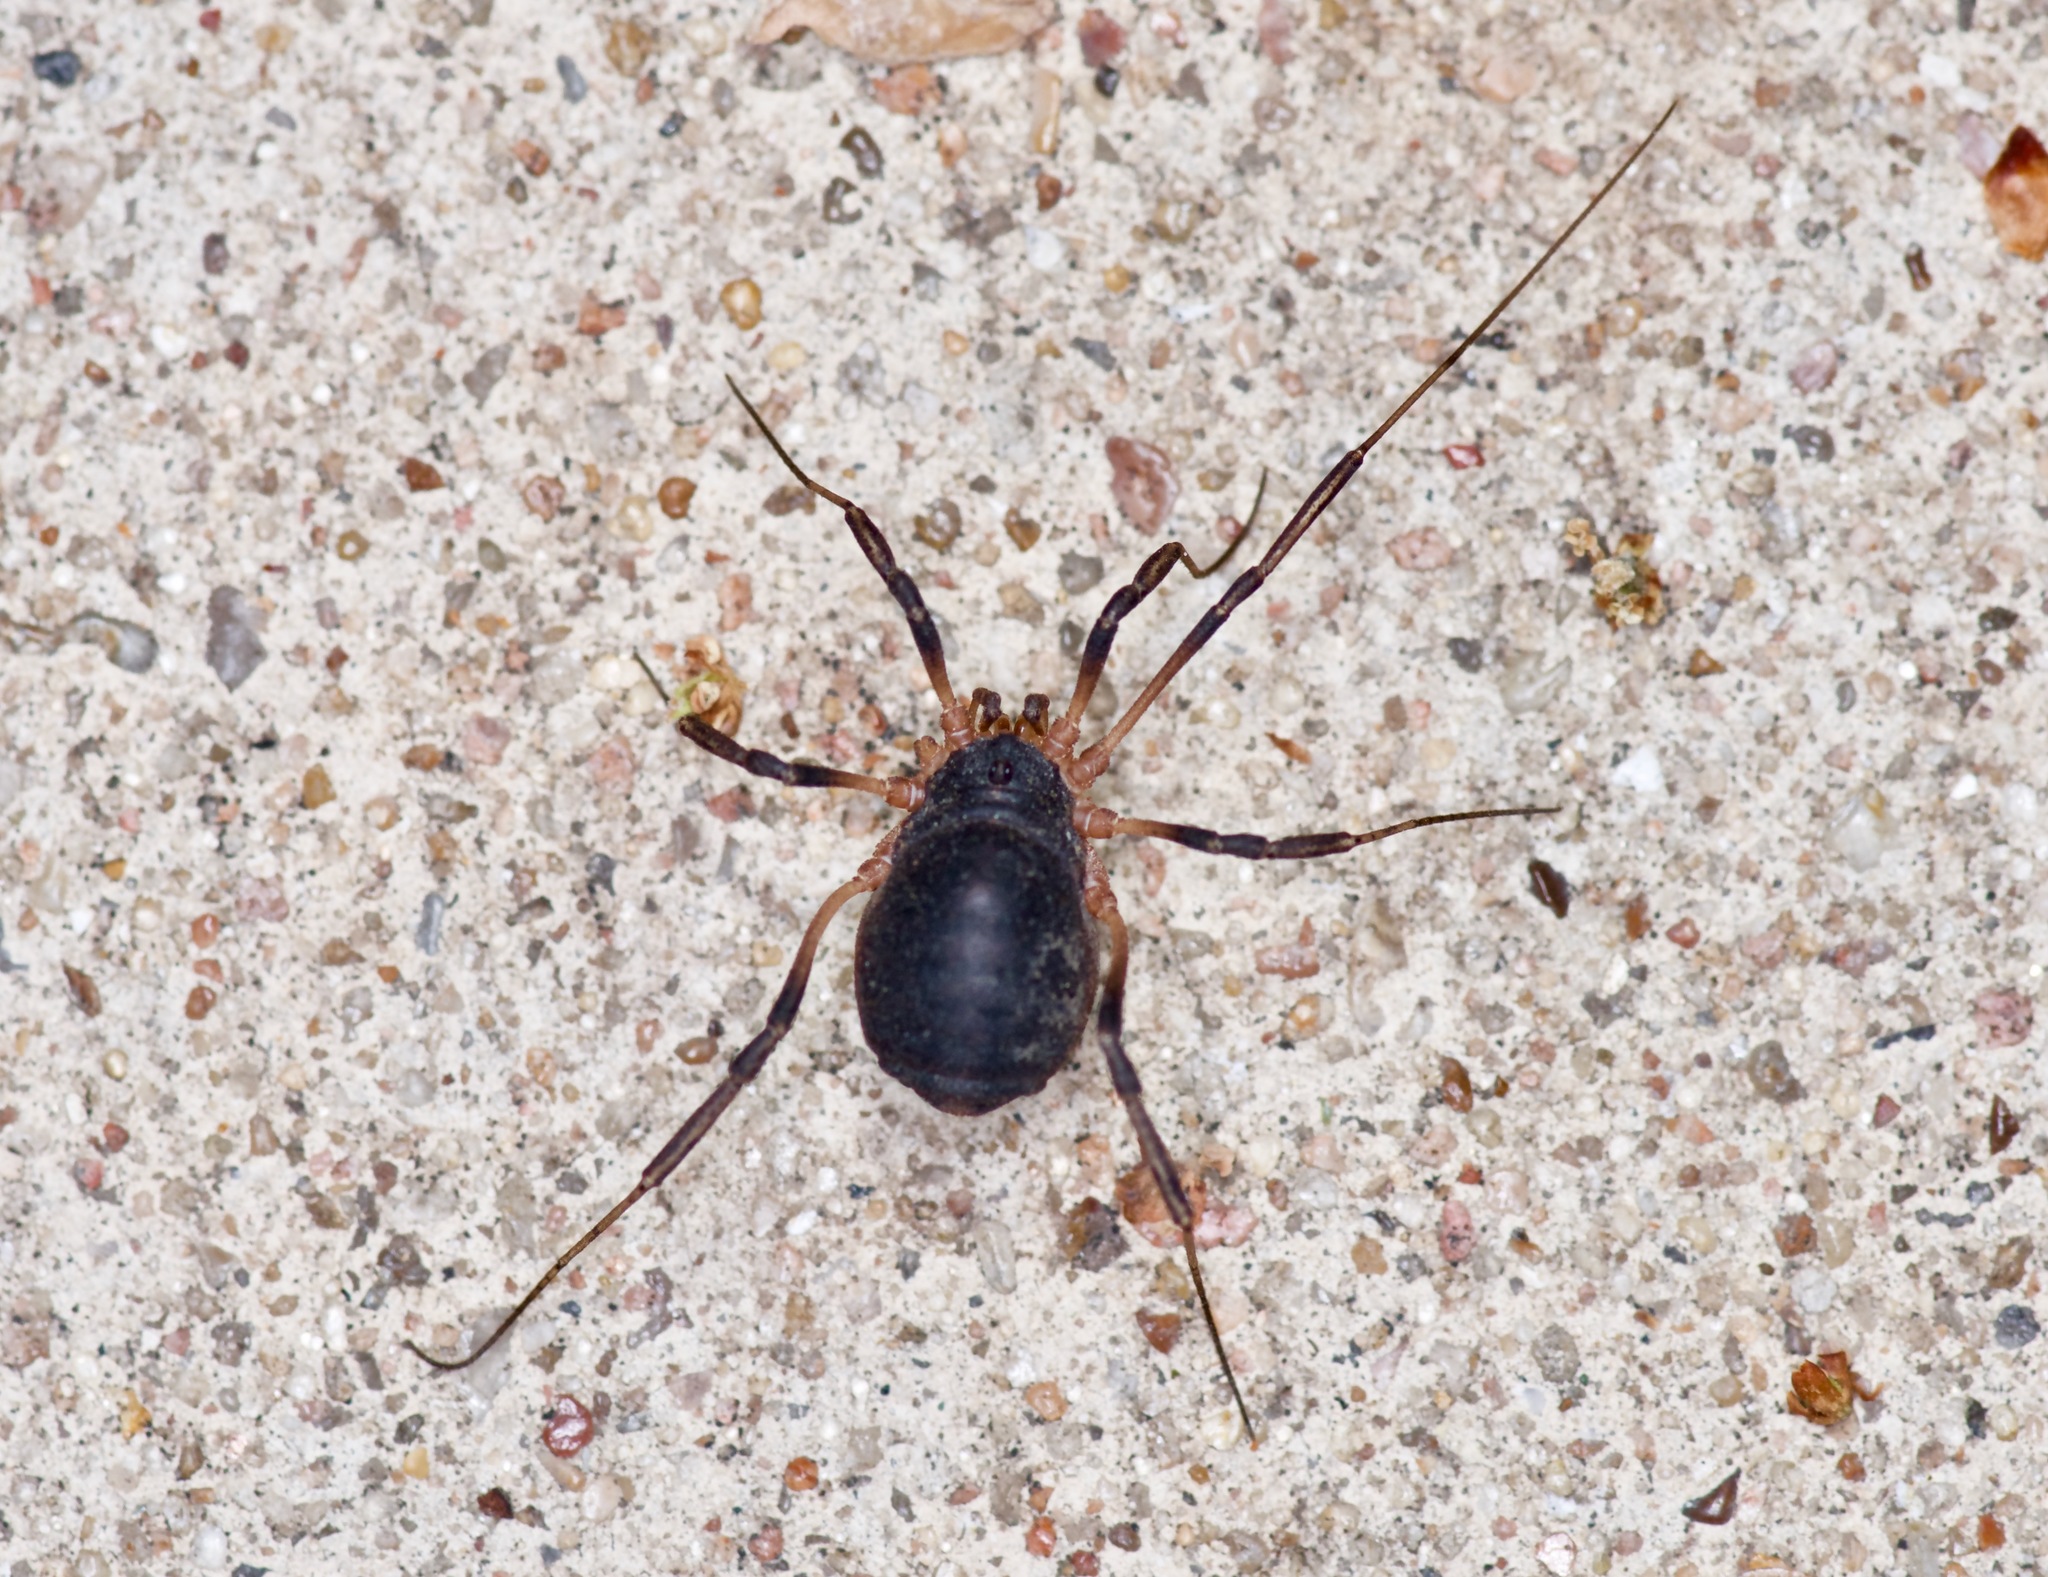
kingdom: Animalia
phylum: Arthropoda
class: Arachnida
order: Opiliones
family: Sclerosomatidae
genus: Eumesosoma
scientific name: Eumesosoma roeweri
